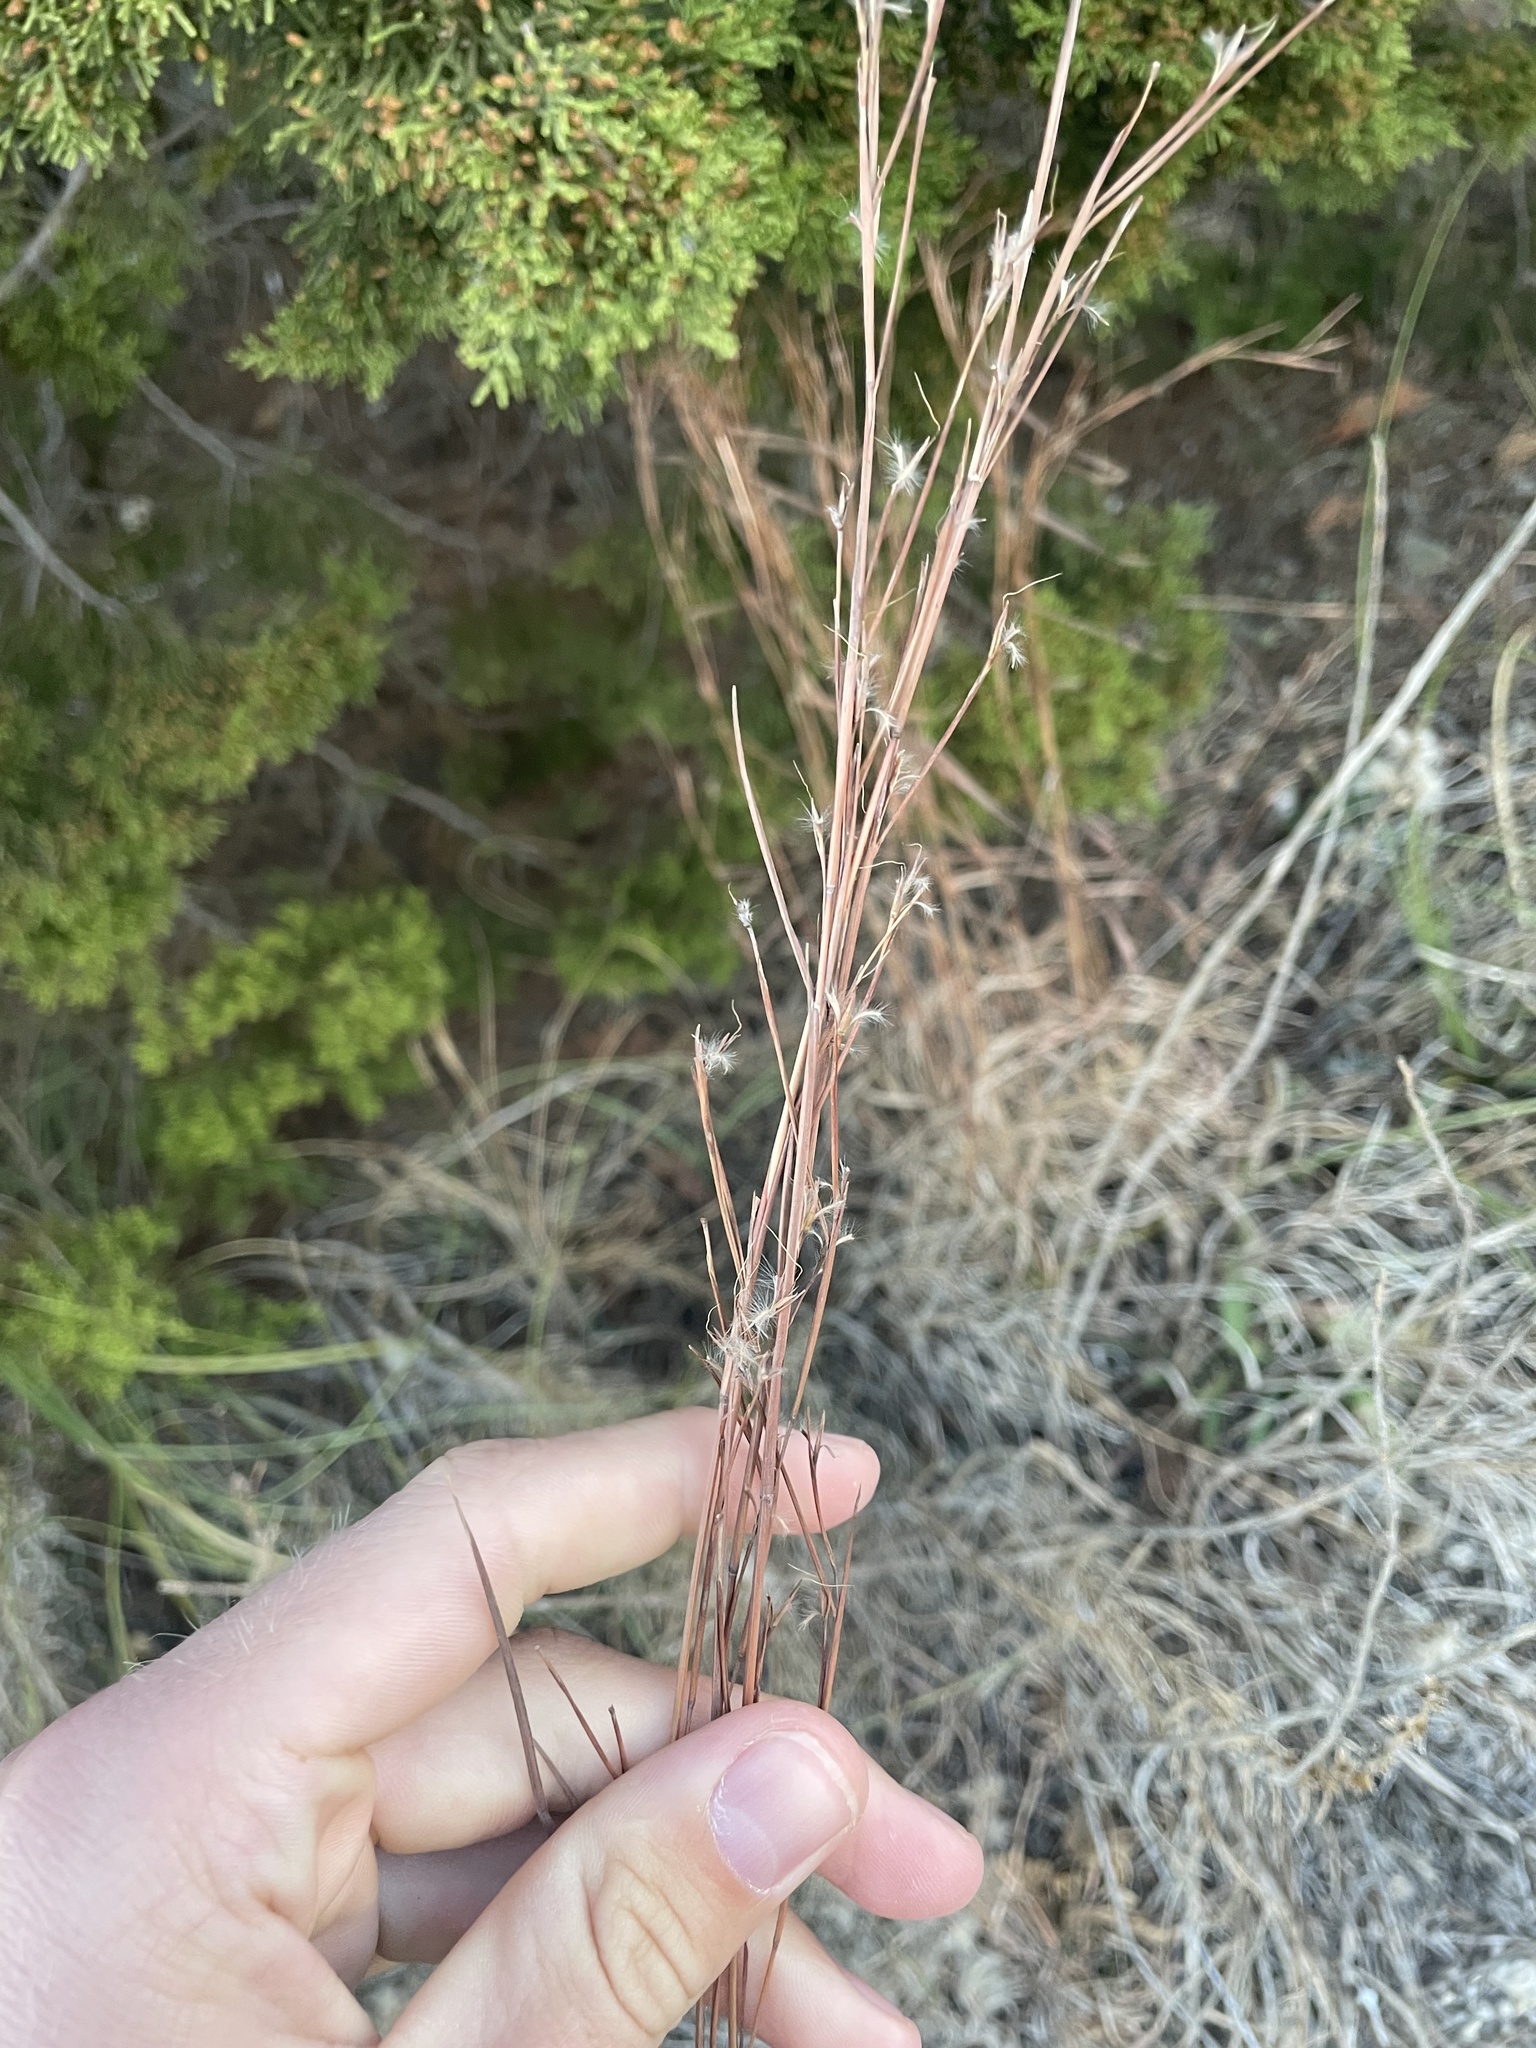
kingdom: Plantae
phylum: Tracheophyta
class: Liliopsida
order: Poales
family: Poaceae
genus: Schizachyrium
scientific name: Schizachyrium scoparium
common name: Little bluestem
